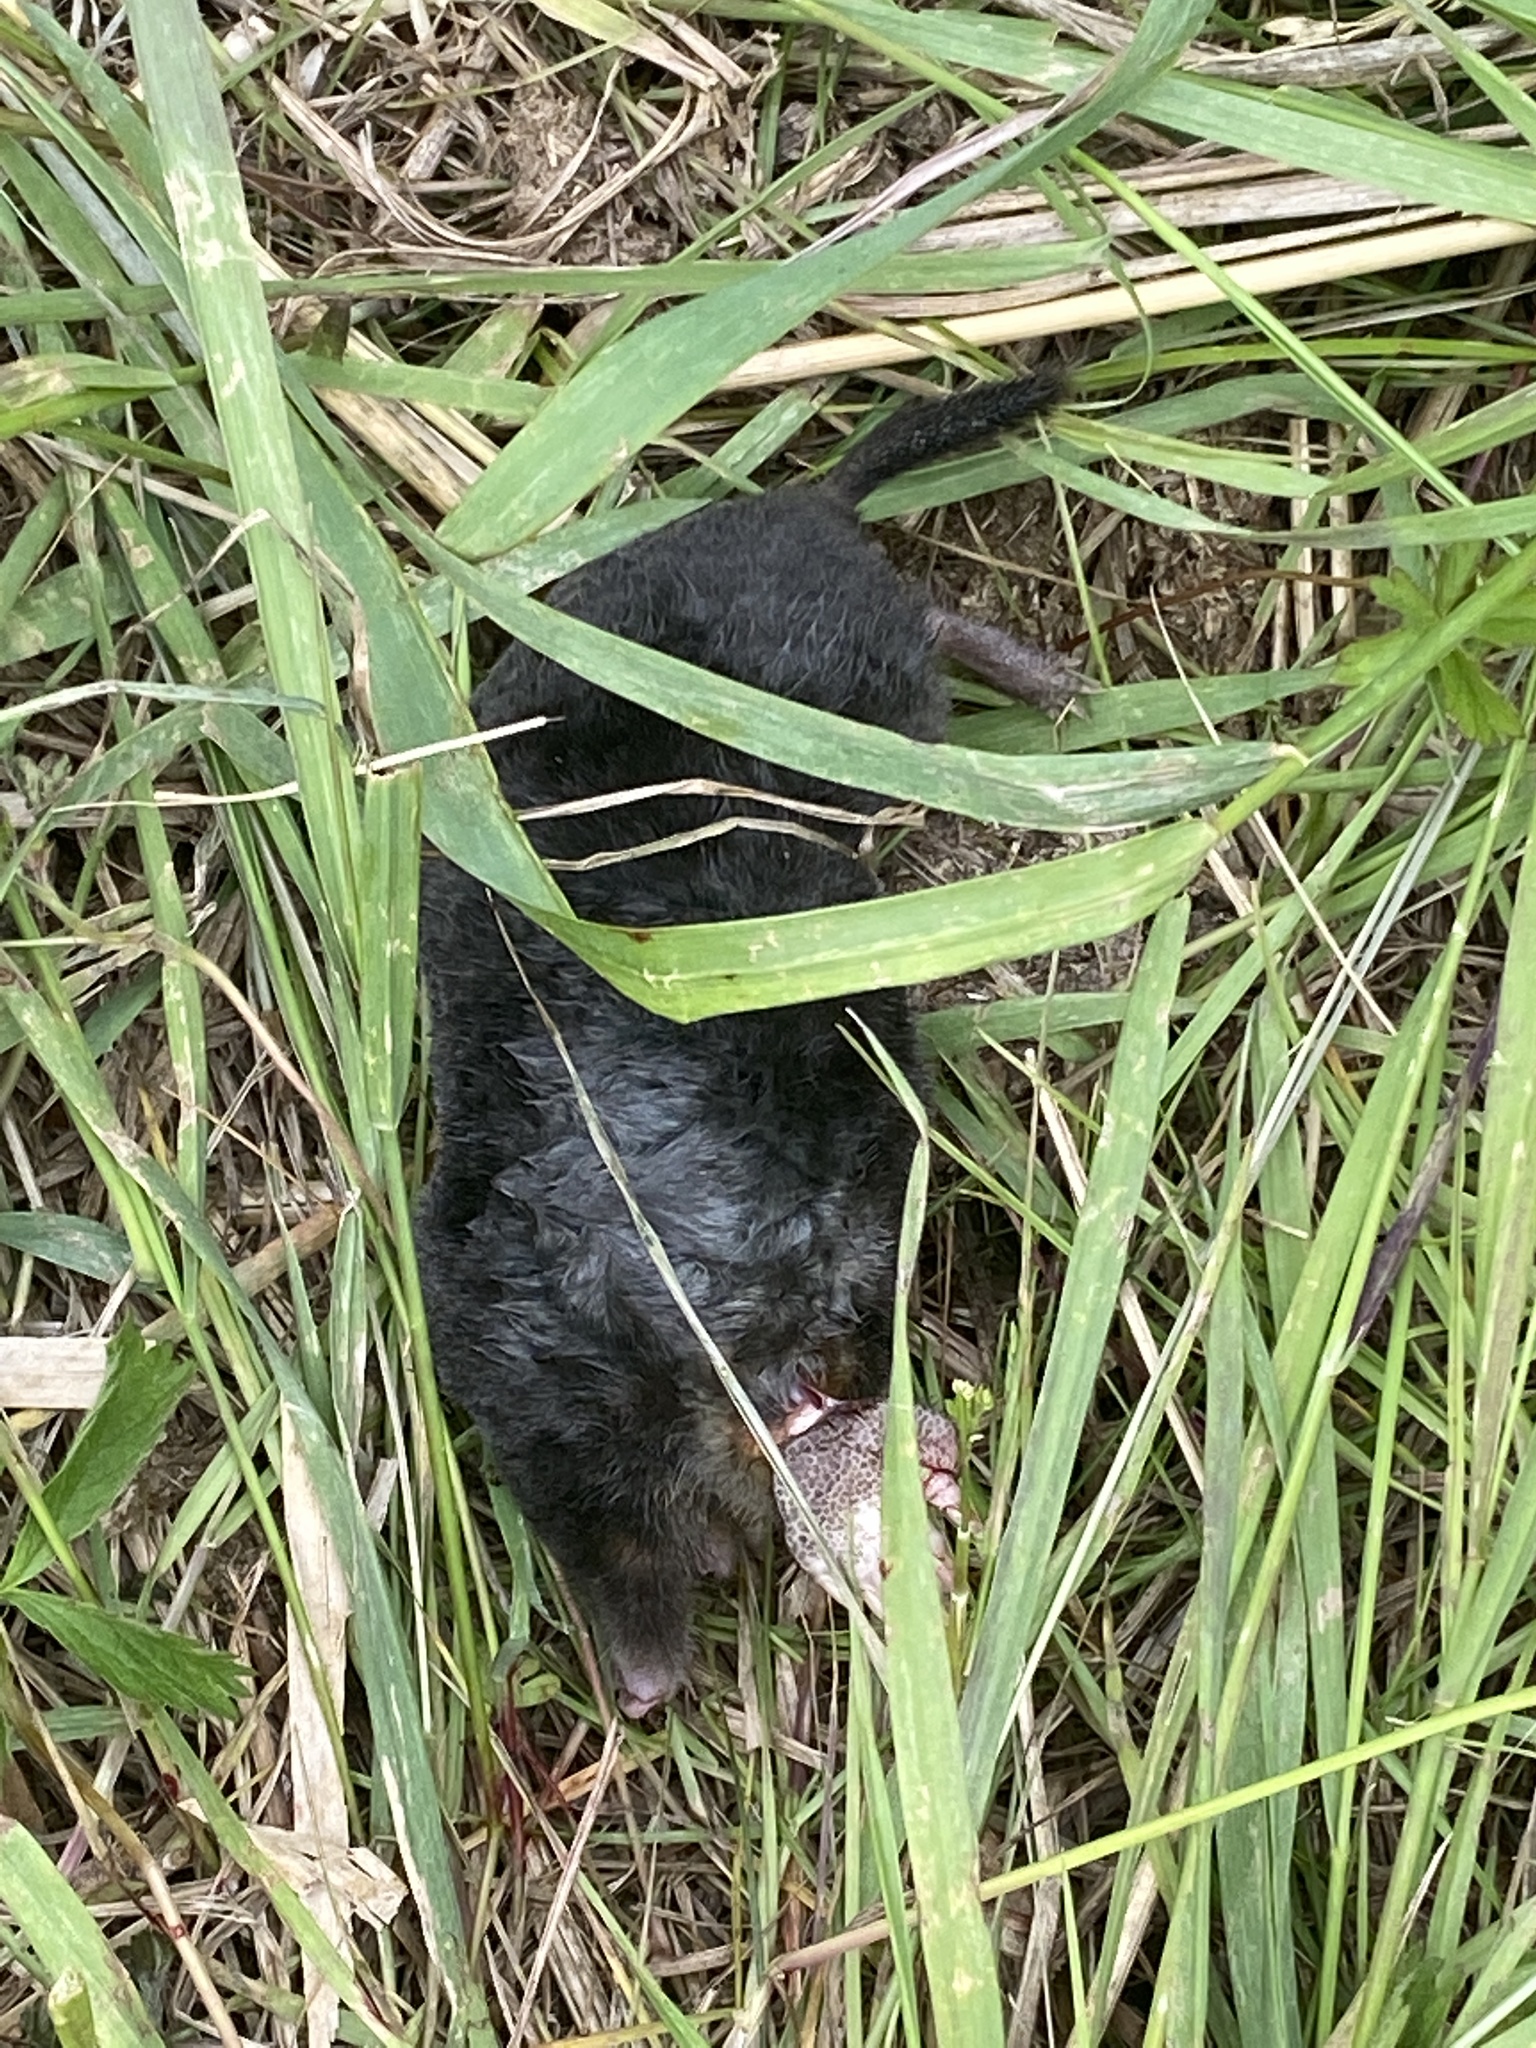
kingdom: Animalia
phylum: Chordata
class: Mammalia
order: Soricomorpha
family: Talpidae
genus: Talpa
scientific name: Talpa europaea
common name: European mole
